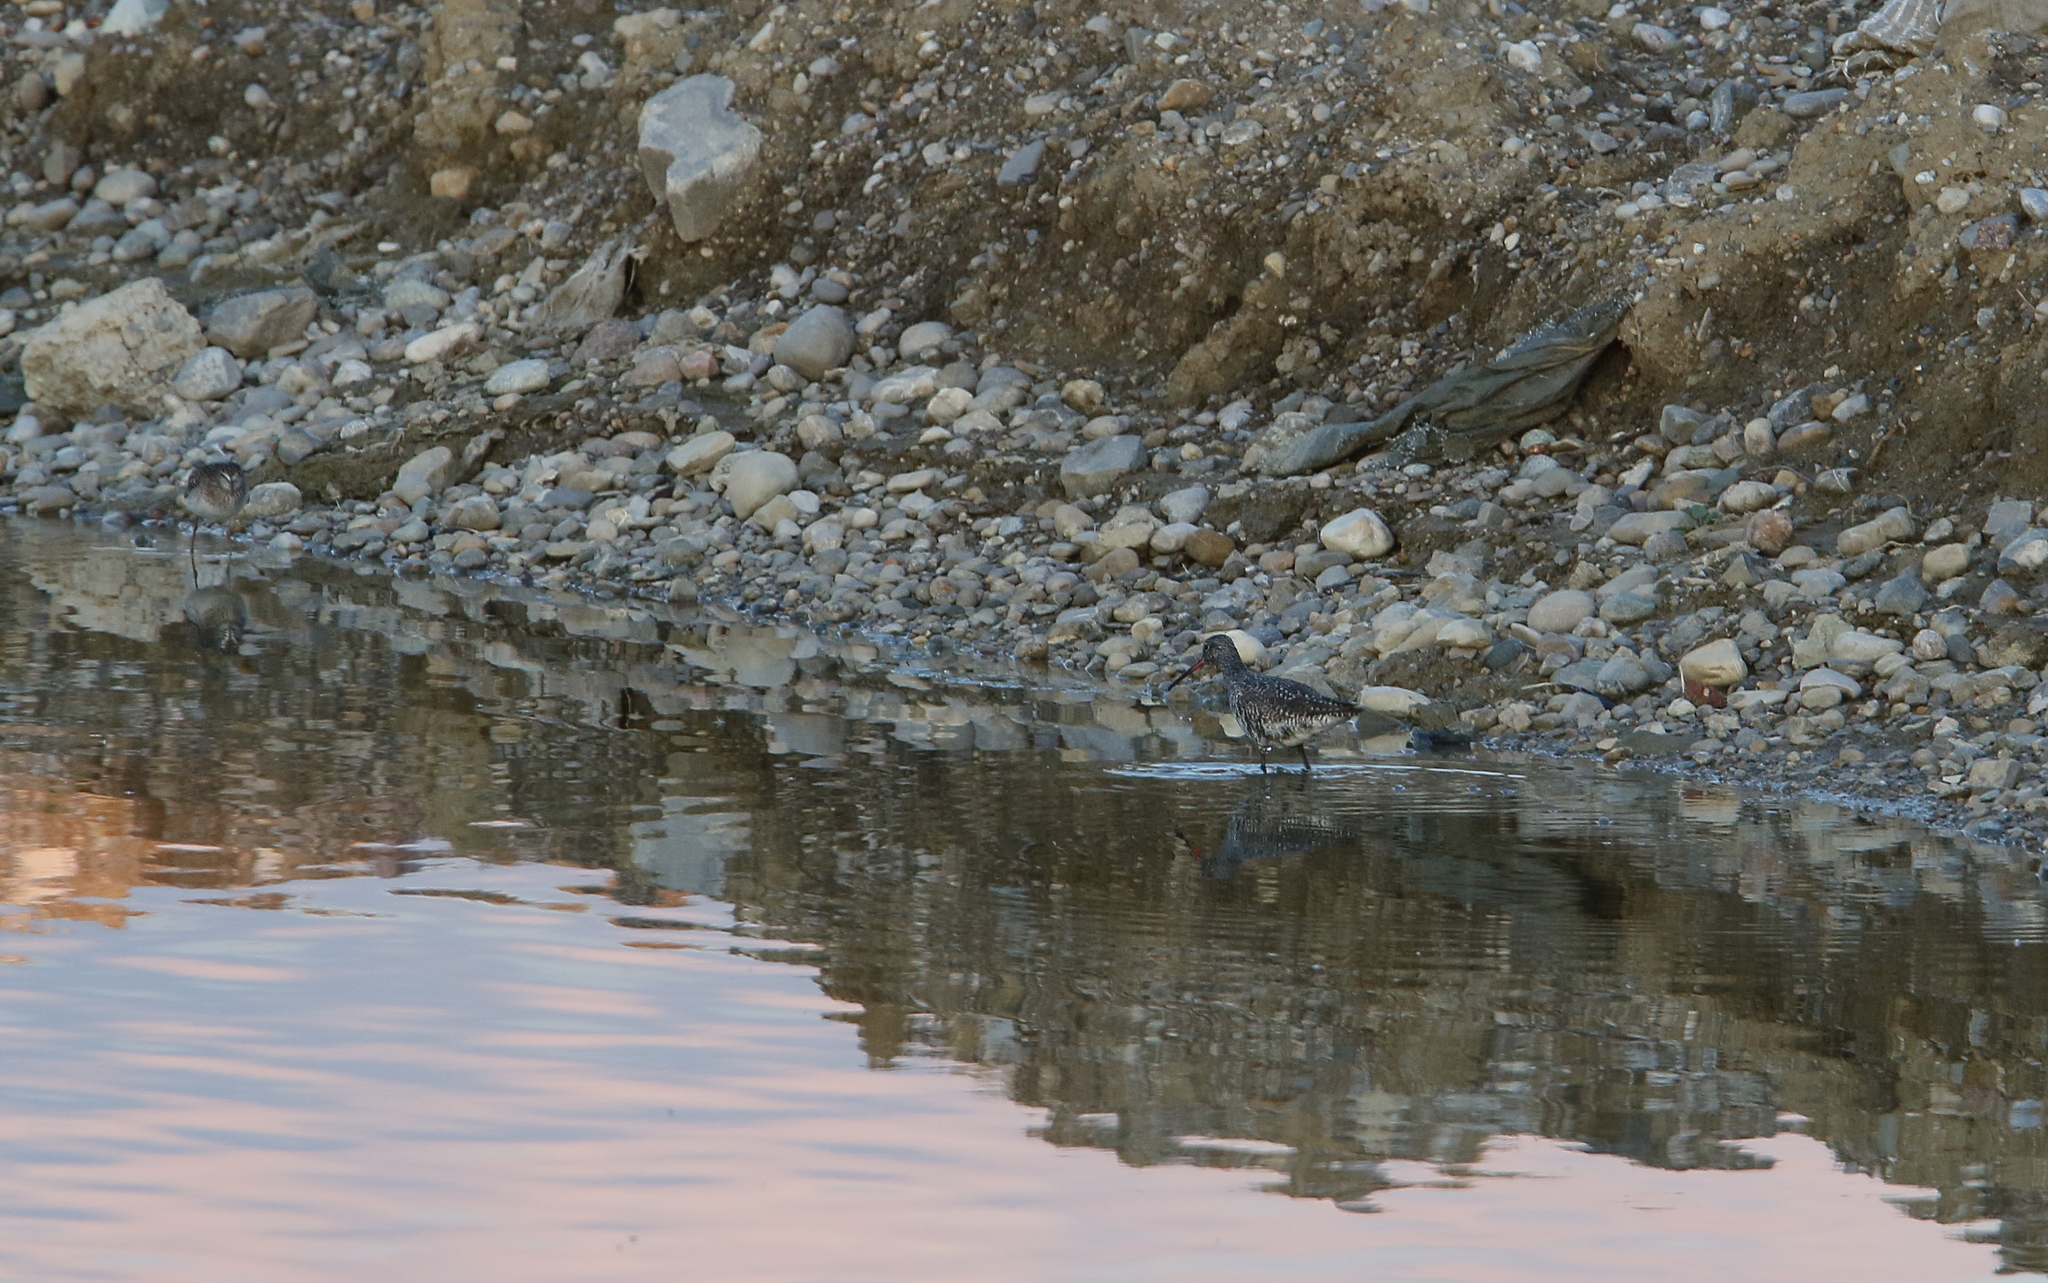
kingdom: Animalia
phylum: Chordata
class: Aves
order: Charadriiformes
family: Scolopacidae
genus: Tringa
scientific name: Tringa erythropus
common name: Spotted redshank
